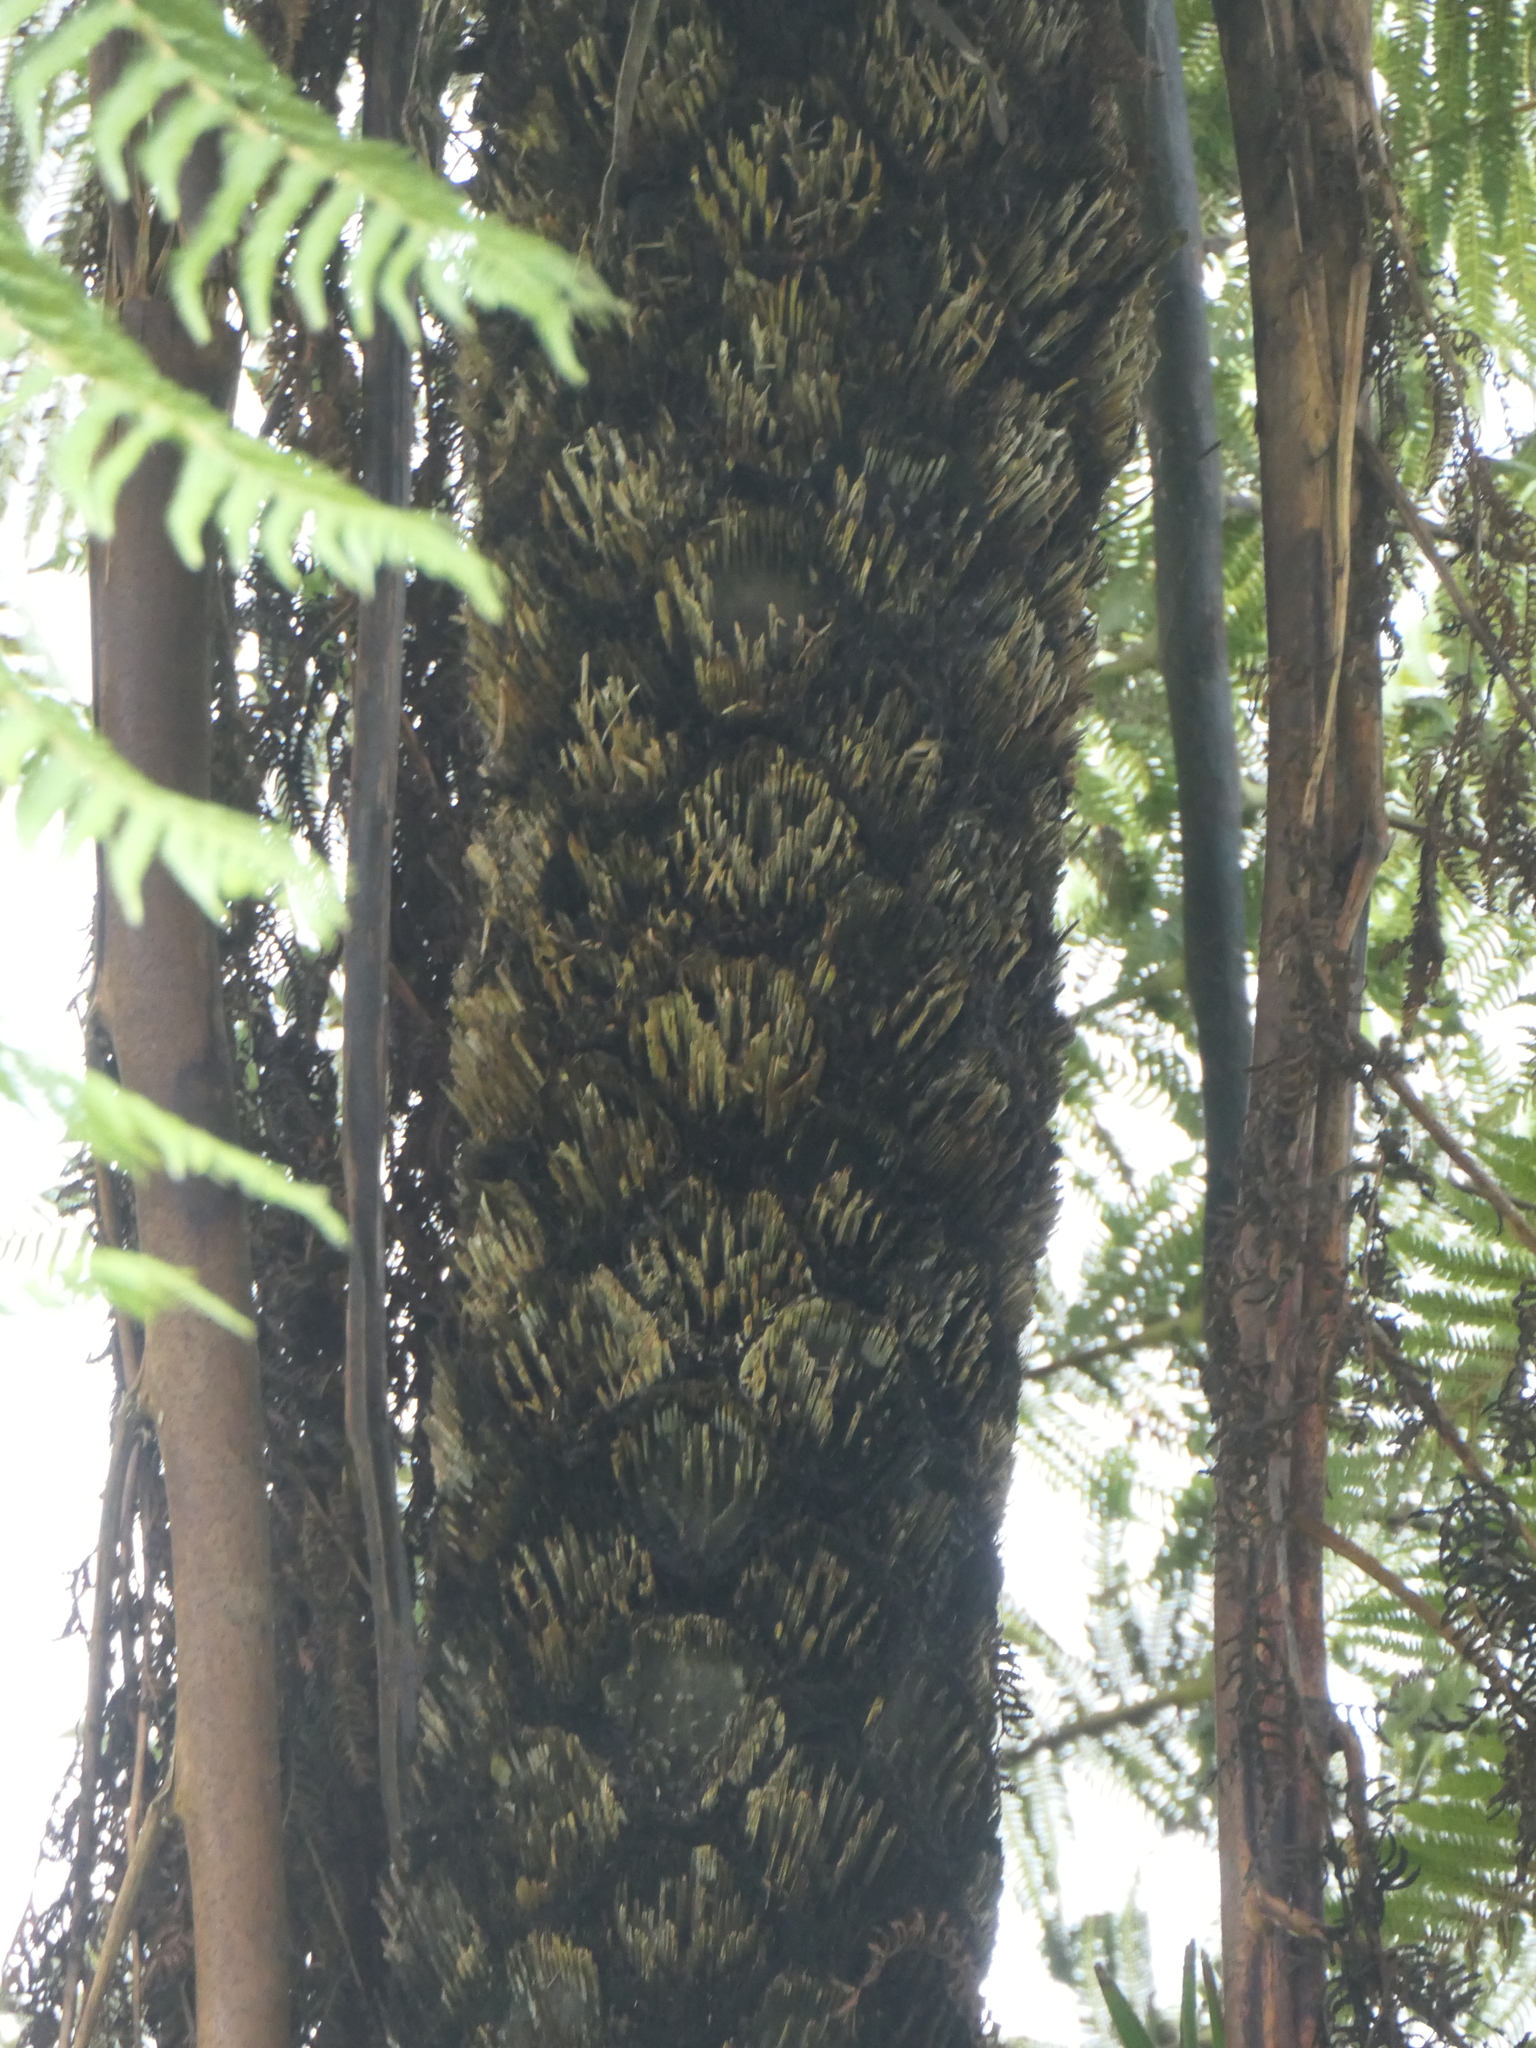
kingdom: Plantae
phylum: Tracheophyta
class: Polypodiopsida
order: Cyatheales
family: Cyatheaceae
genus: Sphaeropteris
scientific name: Sphaeropteris medullaris
